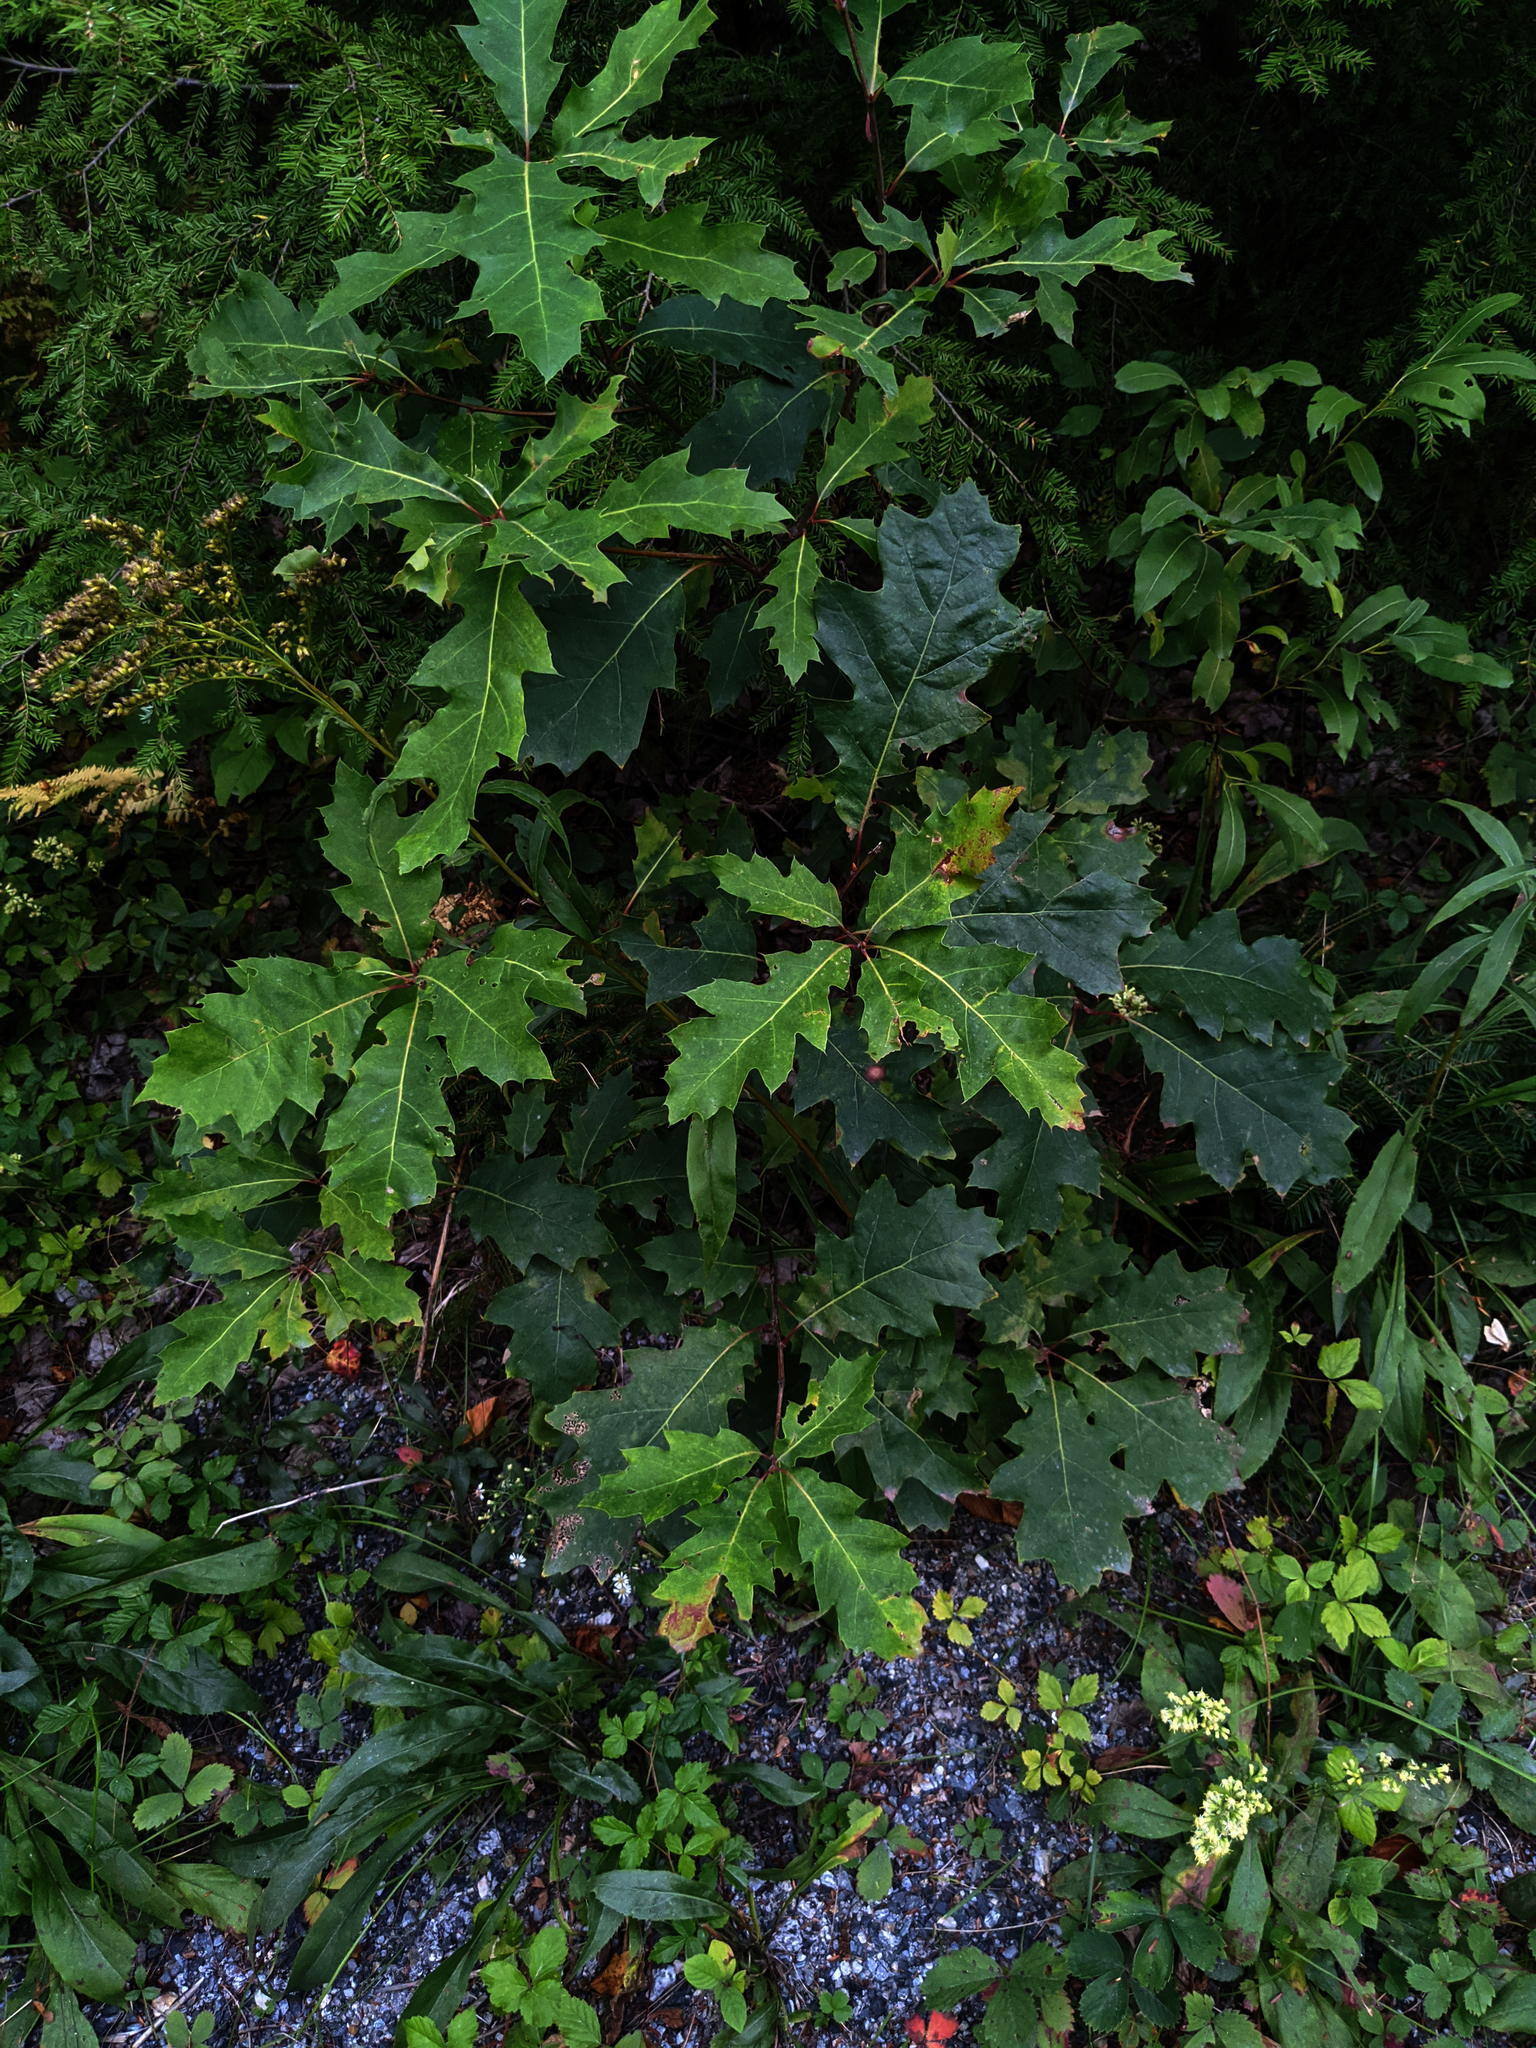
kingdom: Plantae
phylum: Tracheophyta
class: Magnoliopsida
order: Fagales
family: Fagaceae
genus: Quercus
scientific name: Quercus rubra
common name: Red oak
